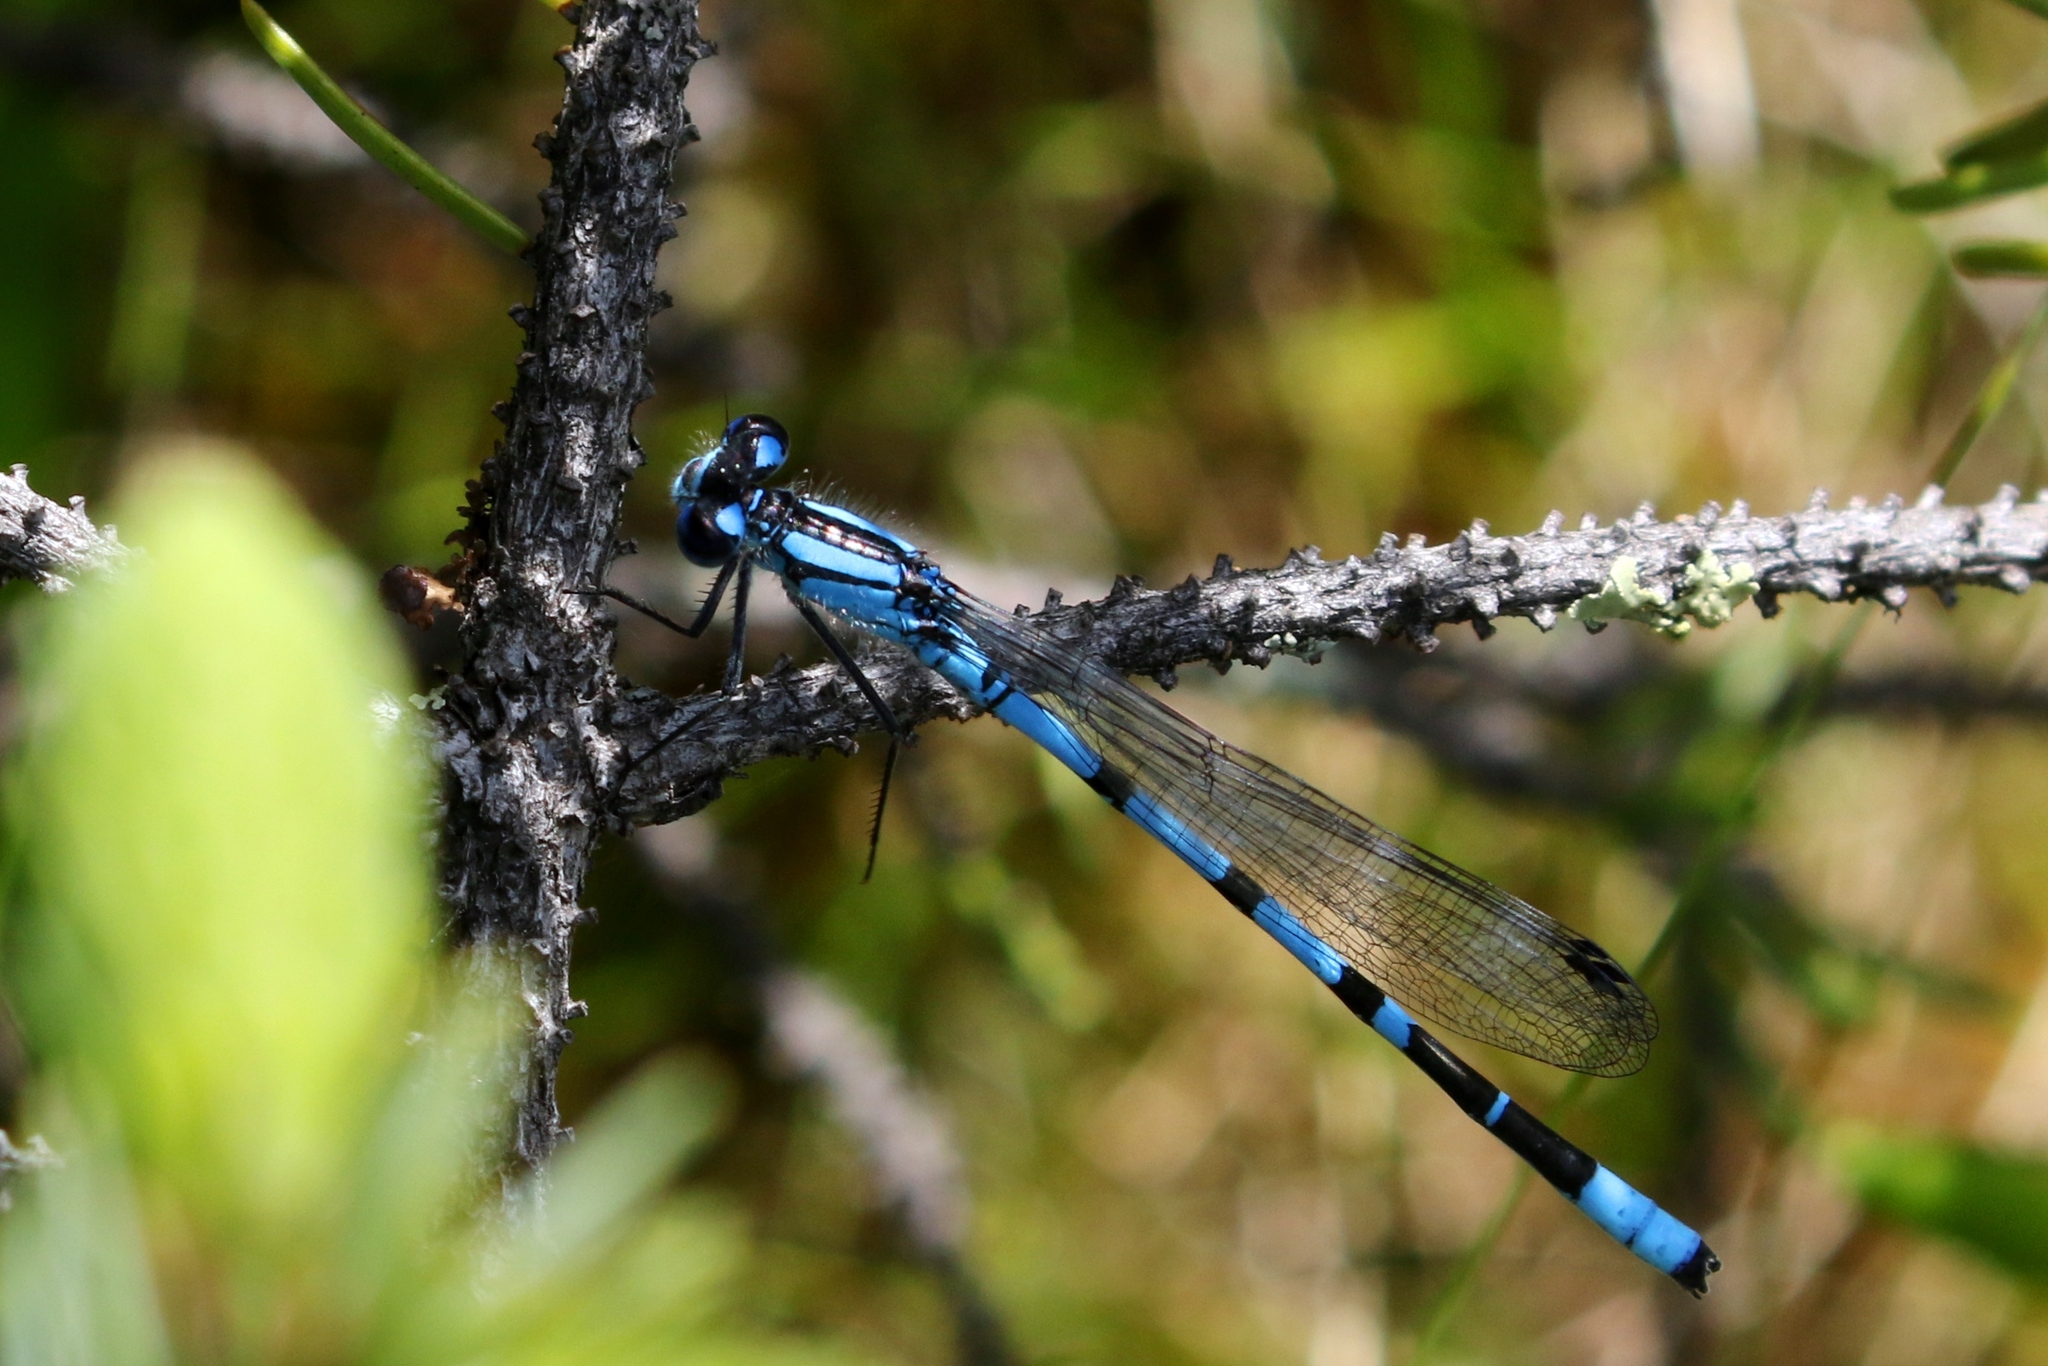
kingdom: Animalia
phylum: Arthropoda
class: Insecta
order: Odonata
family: Coenagrionidae
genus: Enallagma
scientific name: Enallagma boreale
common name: Boreal bluet
